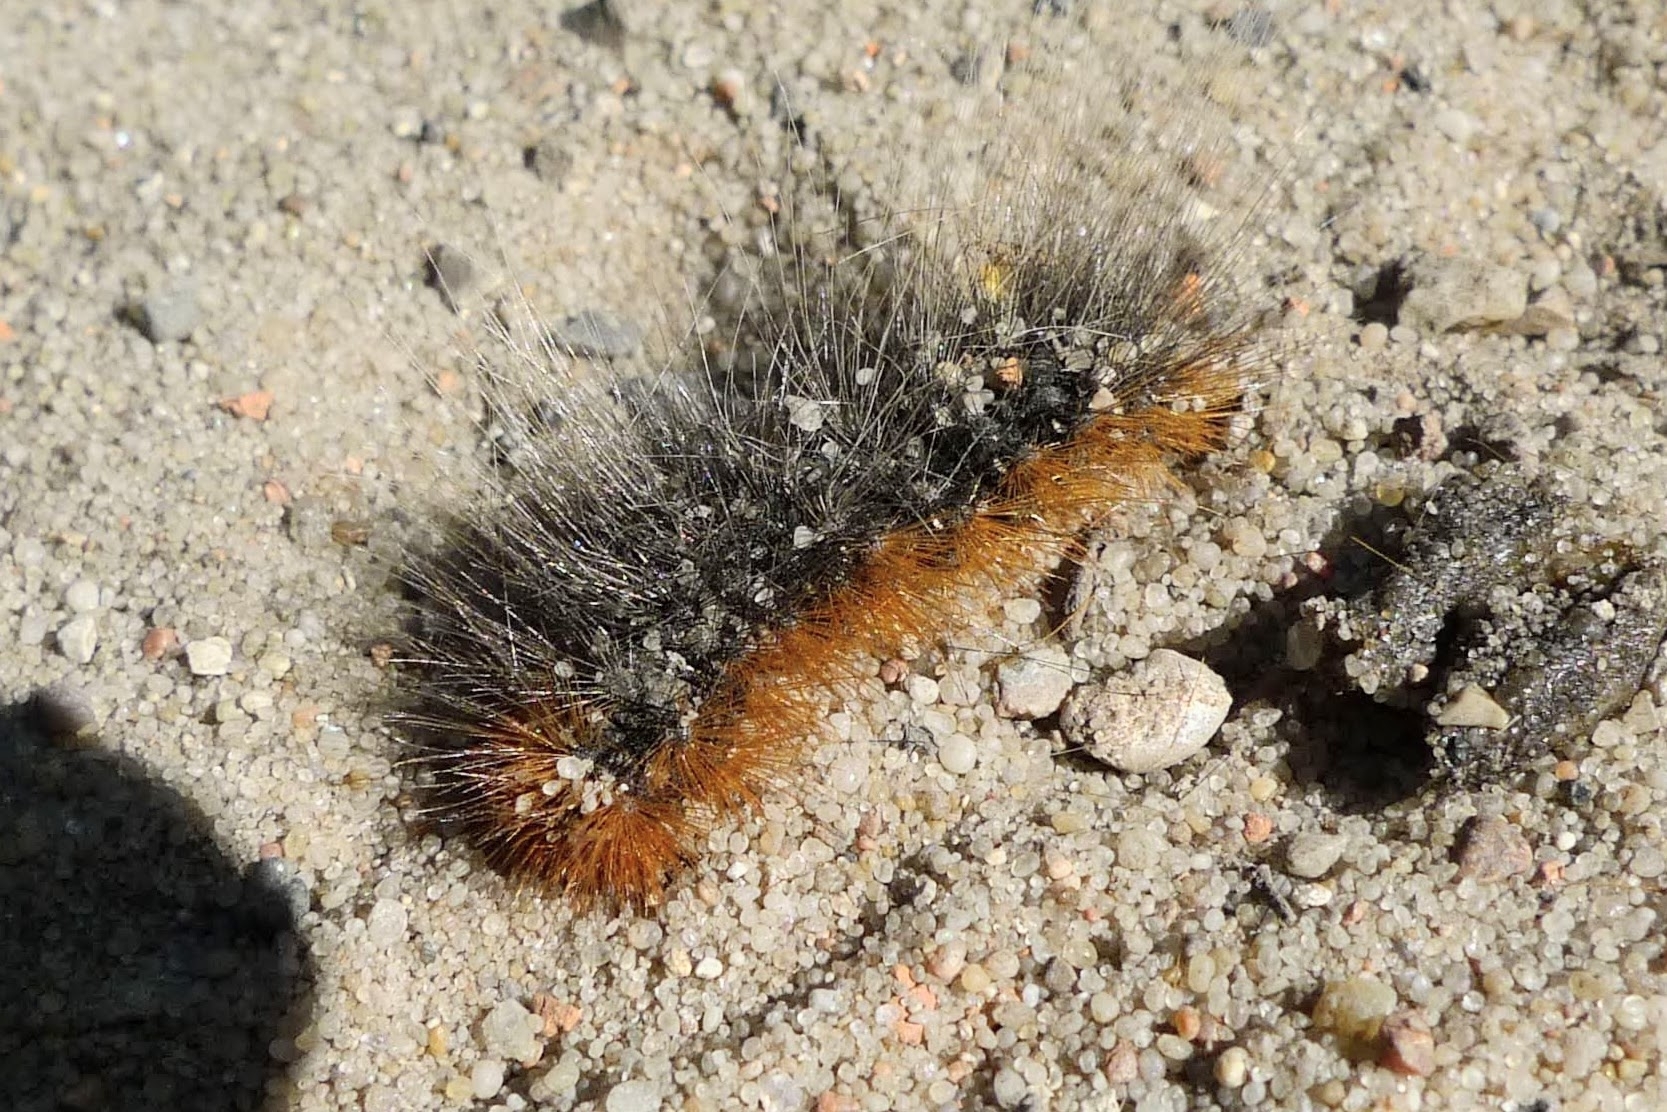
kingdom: Animalia
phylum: Arthropoda
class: Insecta
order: Lepidoptera
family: Erebidae
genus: Arctia
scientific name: Arctia caja
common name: Garden tiger
